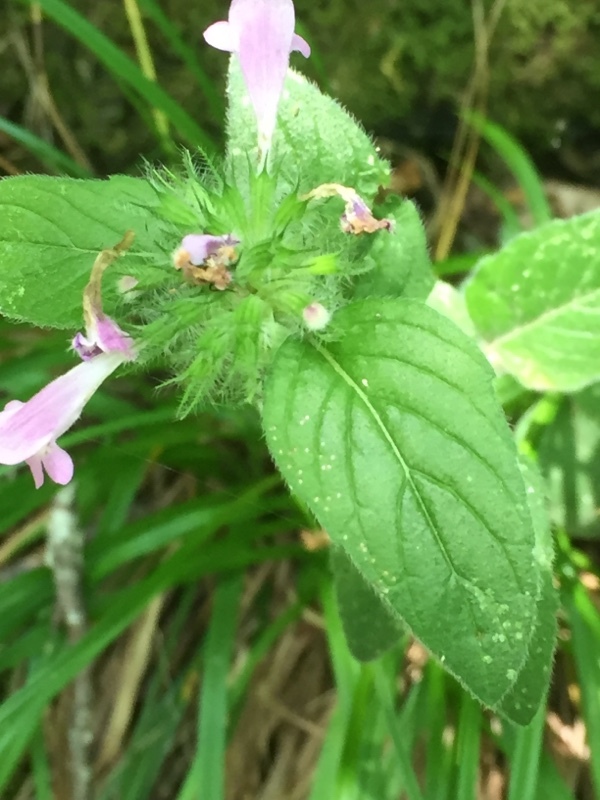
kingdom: Plantae
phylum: Tracheophyta
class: Magnoliopsida
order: Lamiales
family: Lamiaceae
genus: Clinopodium
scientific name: Clinopodium vulgare
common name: Wild basil
